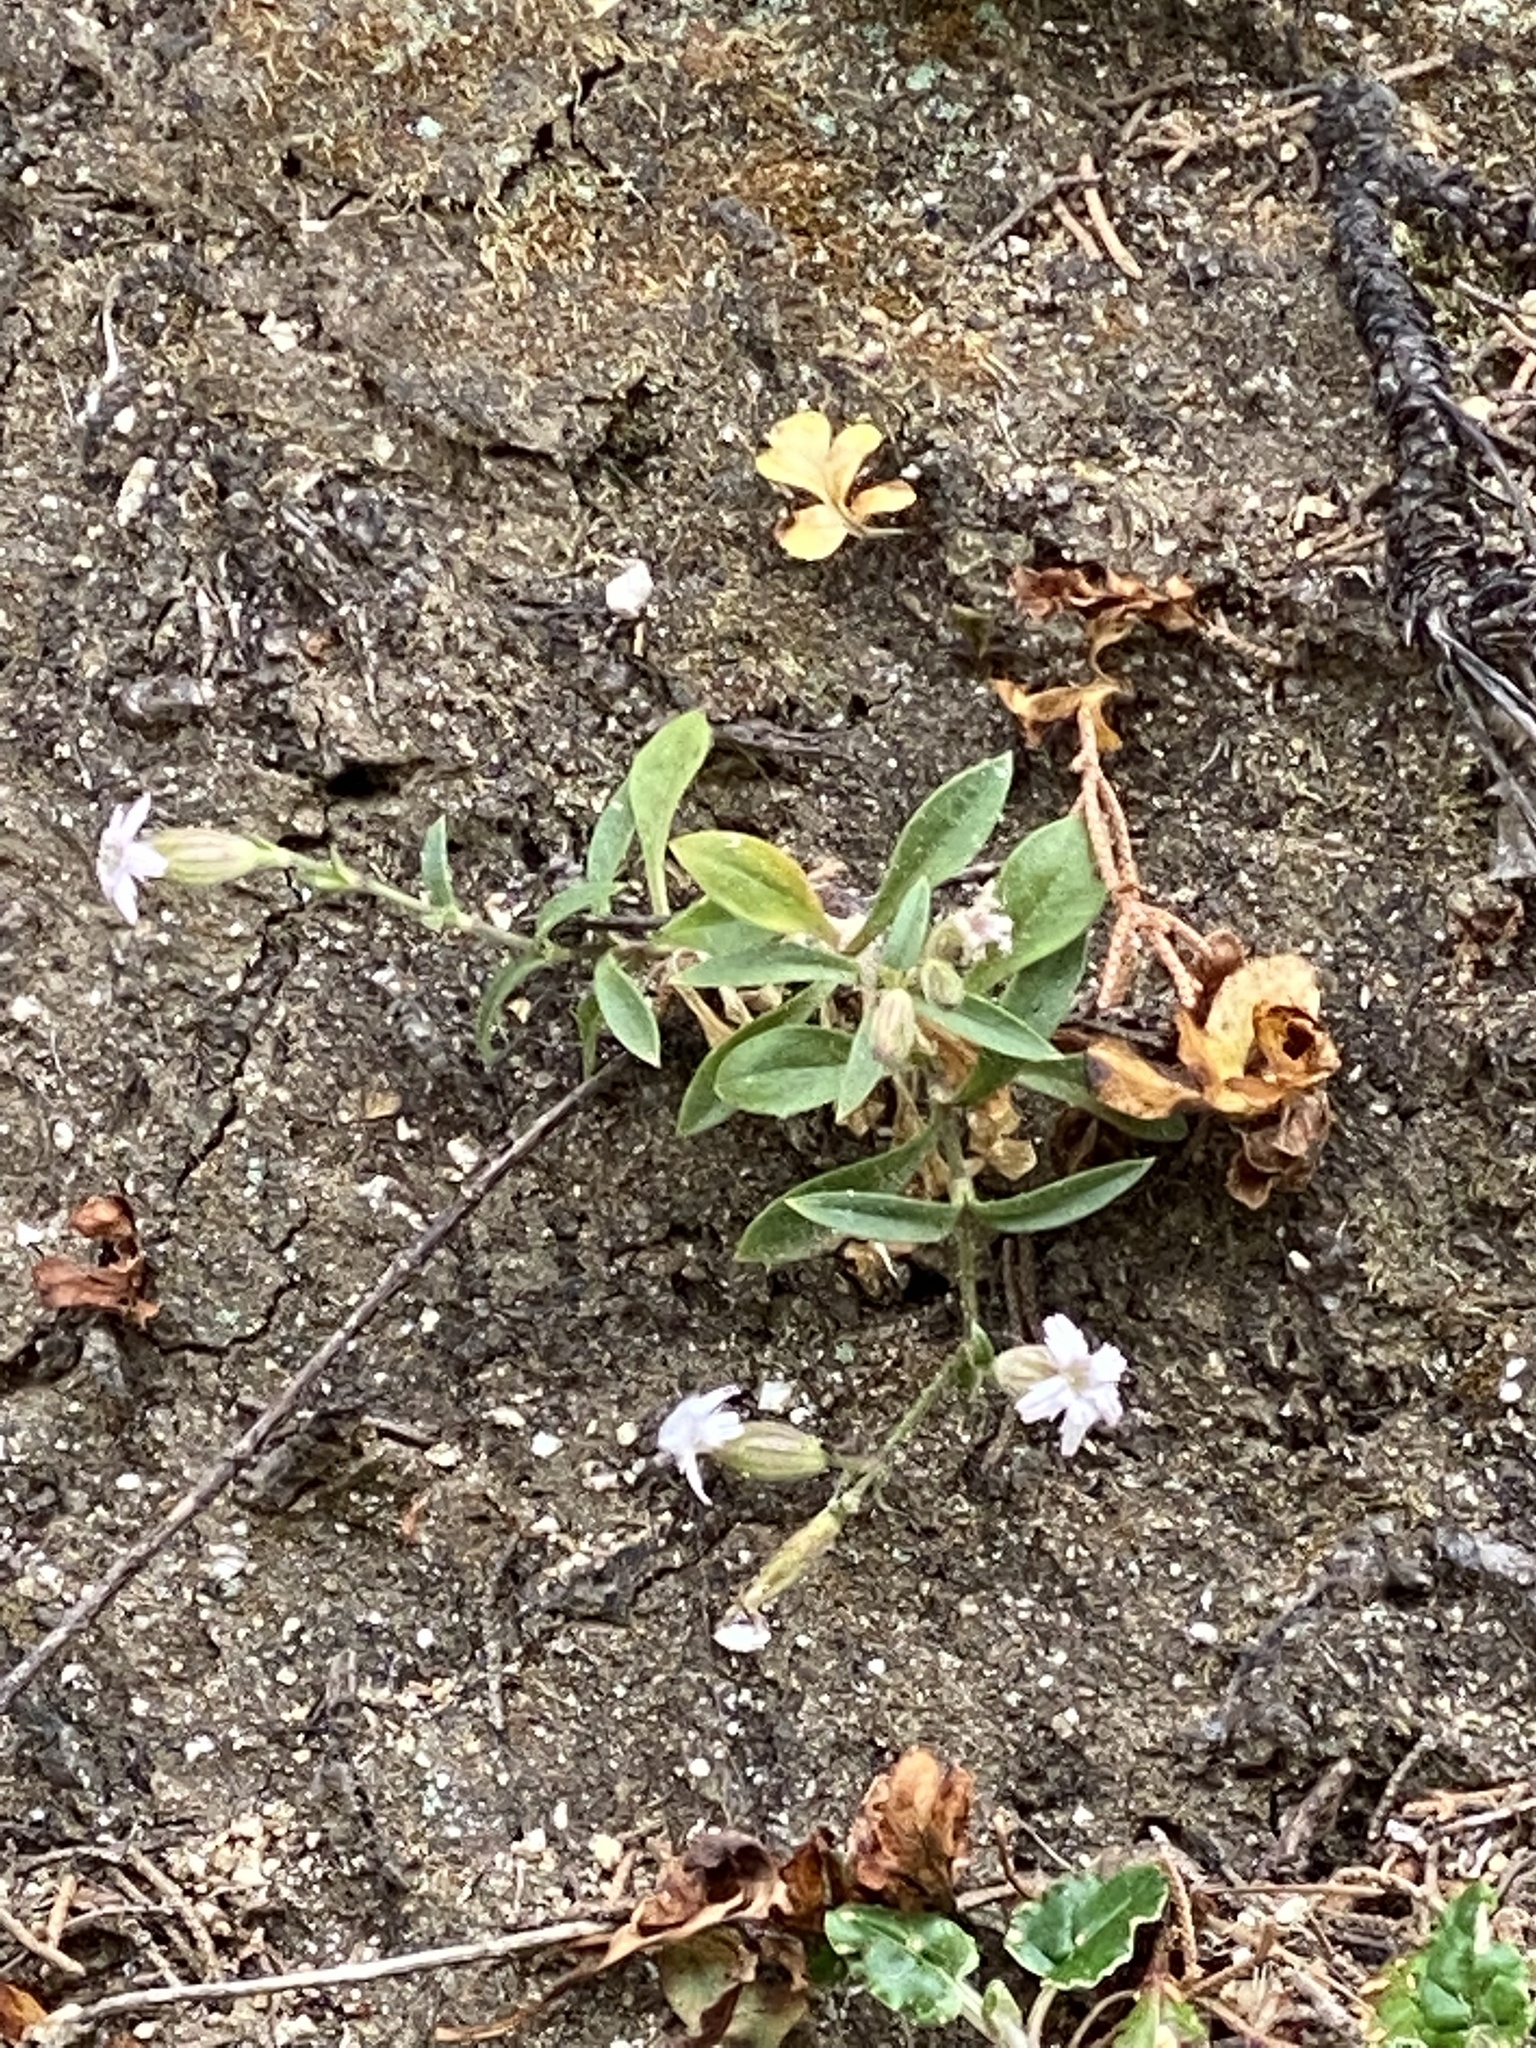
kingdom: Plantae
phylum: Tracheophyta
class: Magnoliopsida
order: Caryophyllales
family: Caryophyllaceae
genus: Silene
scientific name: Silene verecunda
